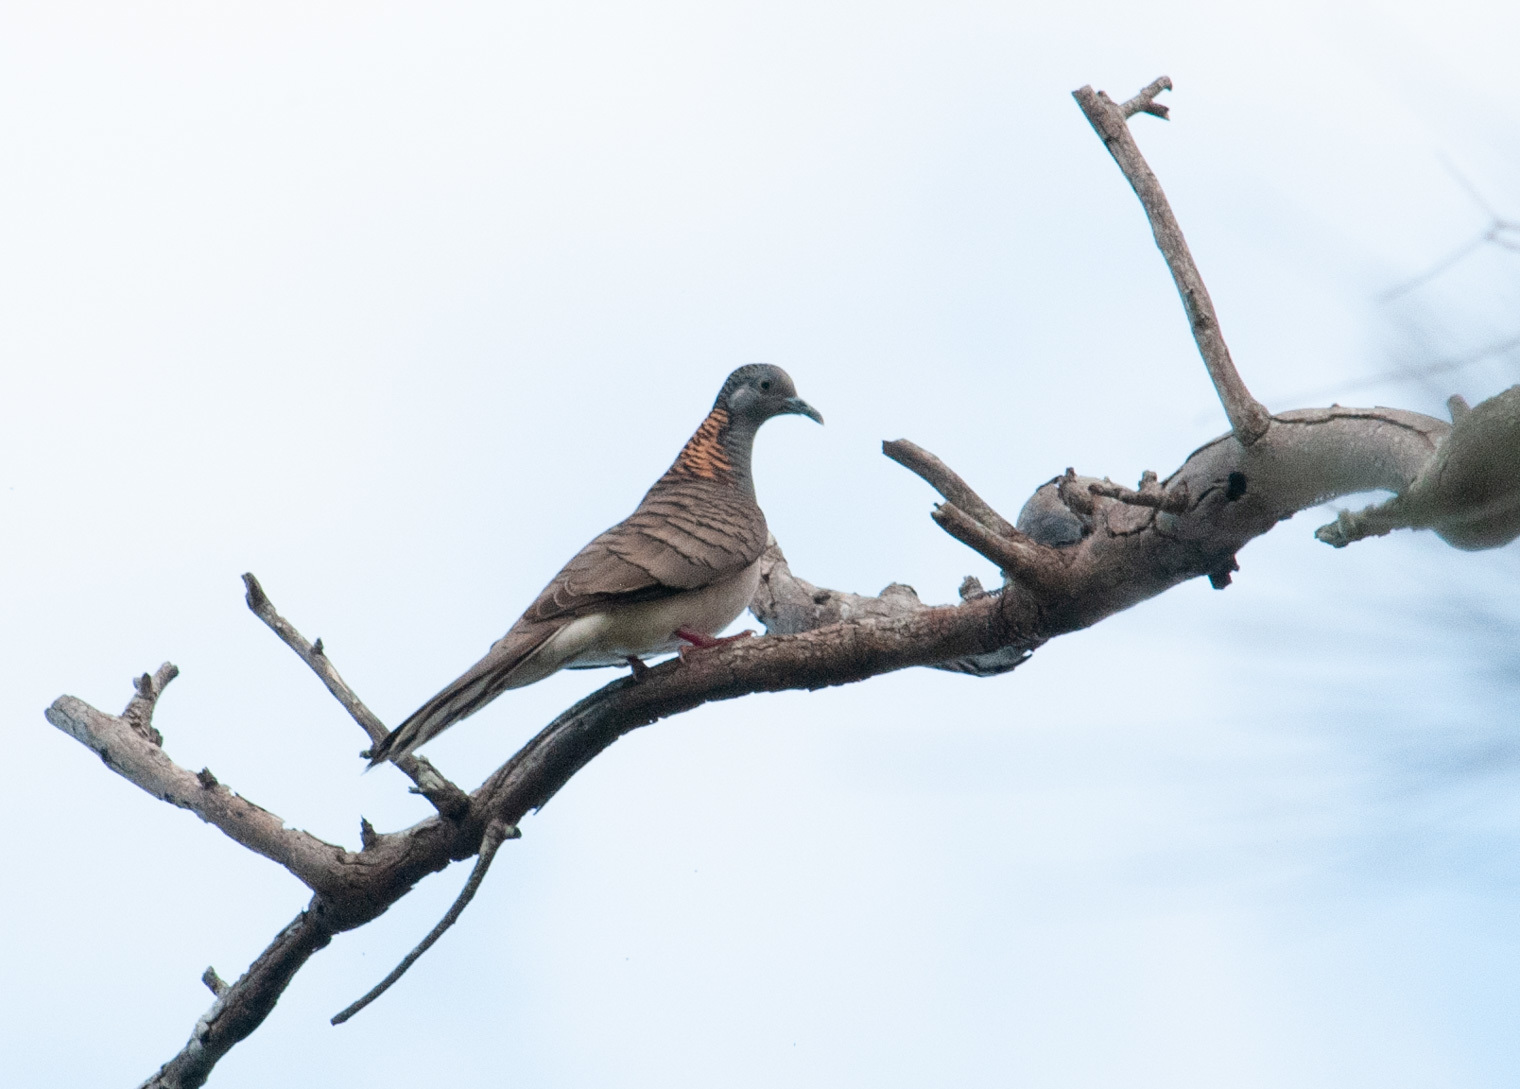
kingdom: Animalia
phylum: Chordata
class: Aves
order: Columbiformes
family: Columbidae
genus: Geopelia
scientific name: Geopelia humeralis
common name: Bar-shouldered dove
